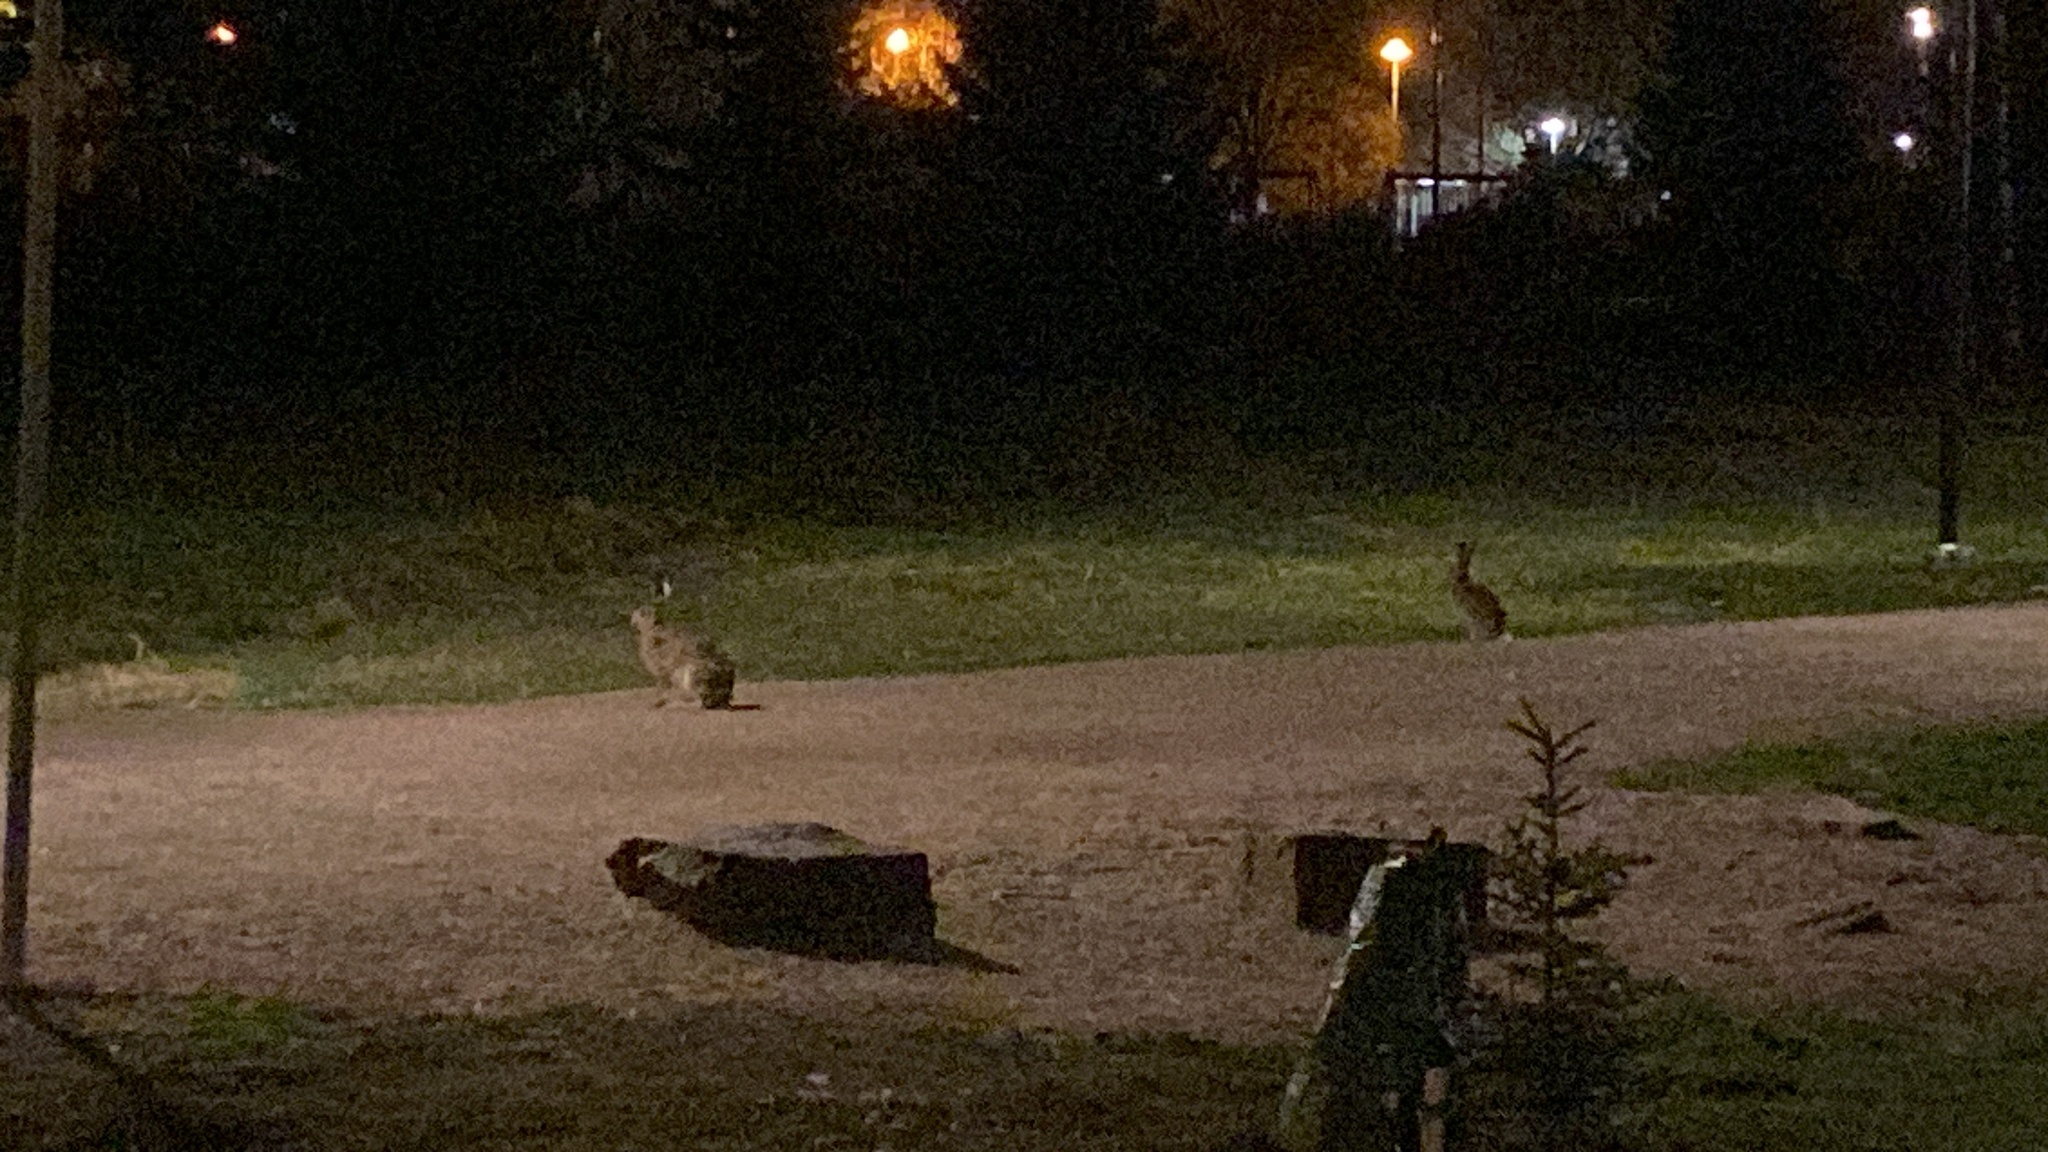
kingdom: Animalia
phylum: Chordata
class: Mammalia
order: Lagomorpha
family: Leporidae
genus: Lepus
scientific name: Lepus europaeus
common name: European hare
